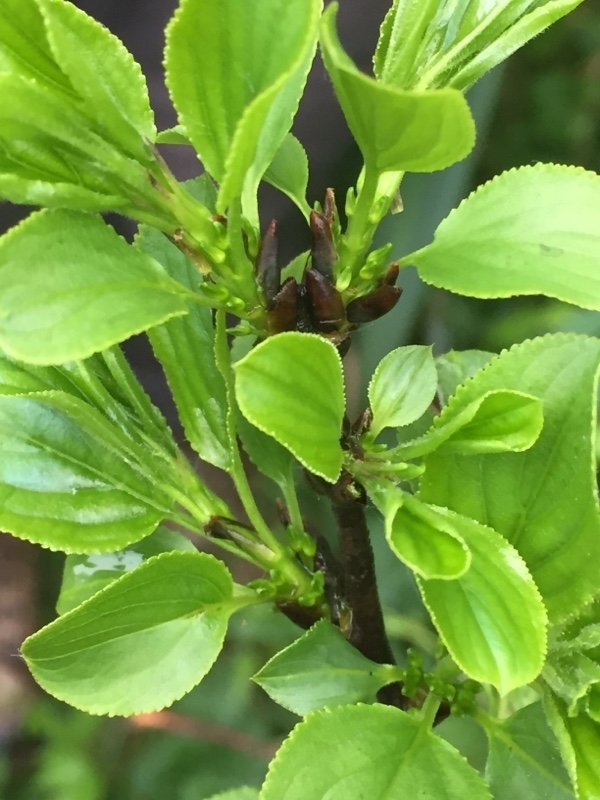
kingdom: Plantae
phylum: Tracheophyta
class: Magnoliopsida
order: Rosales
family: Rhamnaceae
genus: Rhamnus
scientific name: Rhamnus cathartica
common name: Common buckthorn
